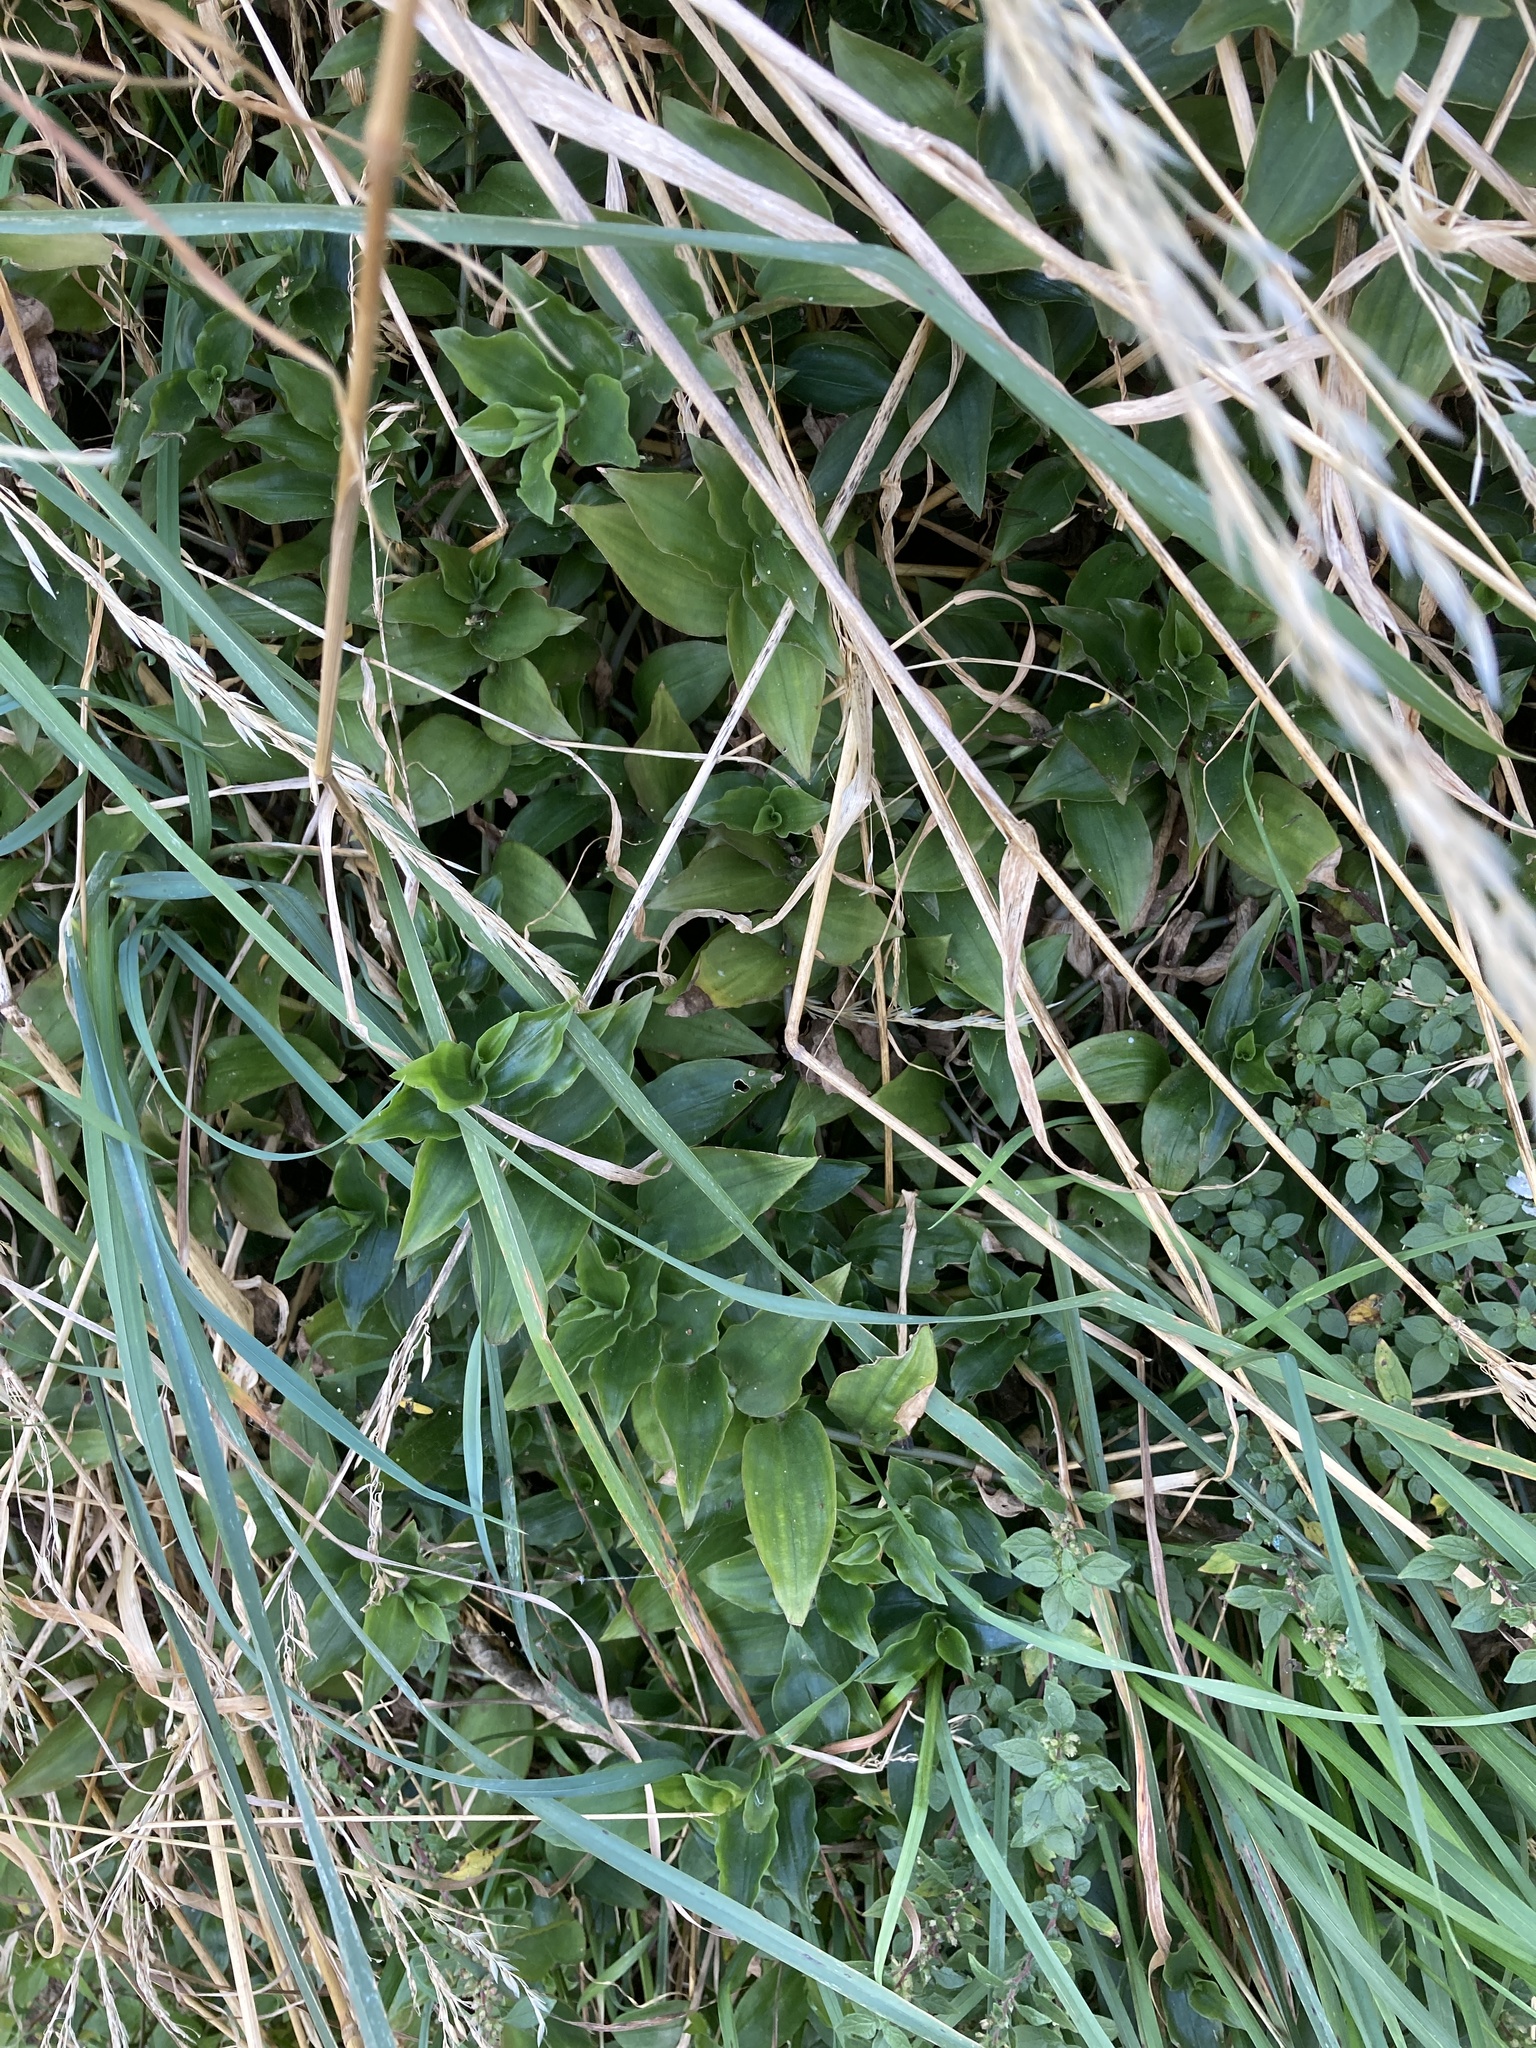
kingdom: Plantae
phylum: Tracheophyta
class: Liliopsida
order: Commelinales
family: Commelinaceae
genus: Tradescantia
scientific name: Tradescantia fluminensis
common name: Wandering-jew
